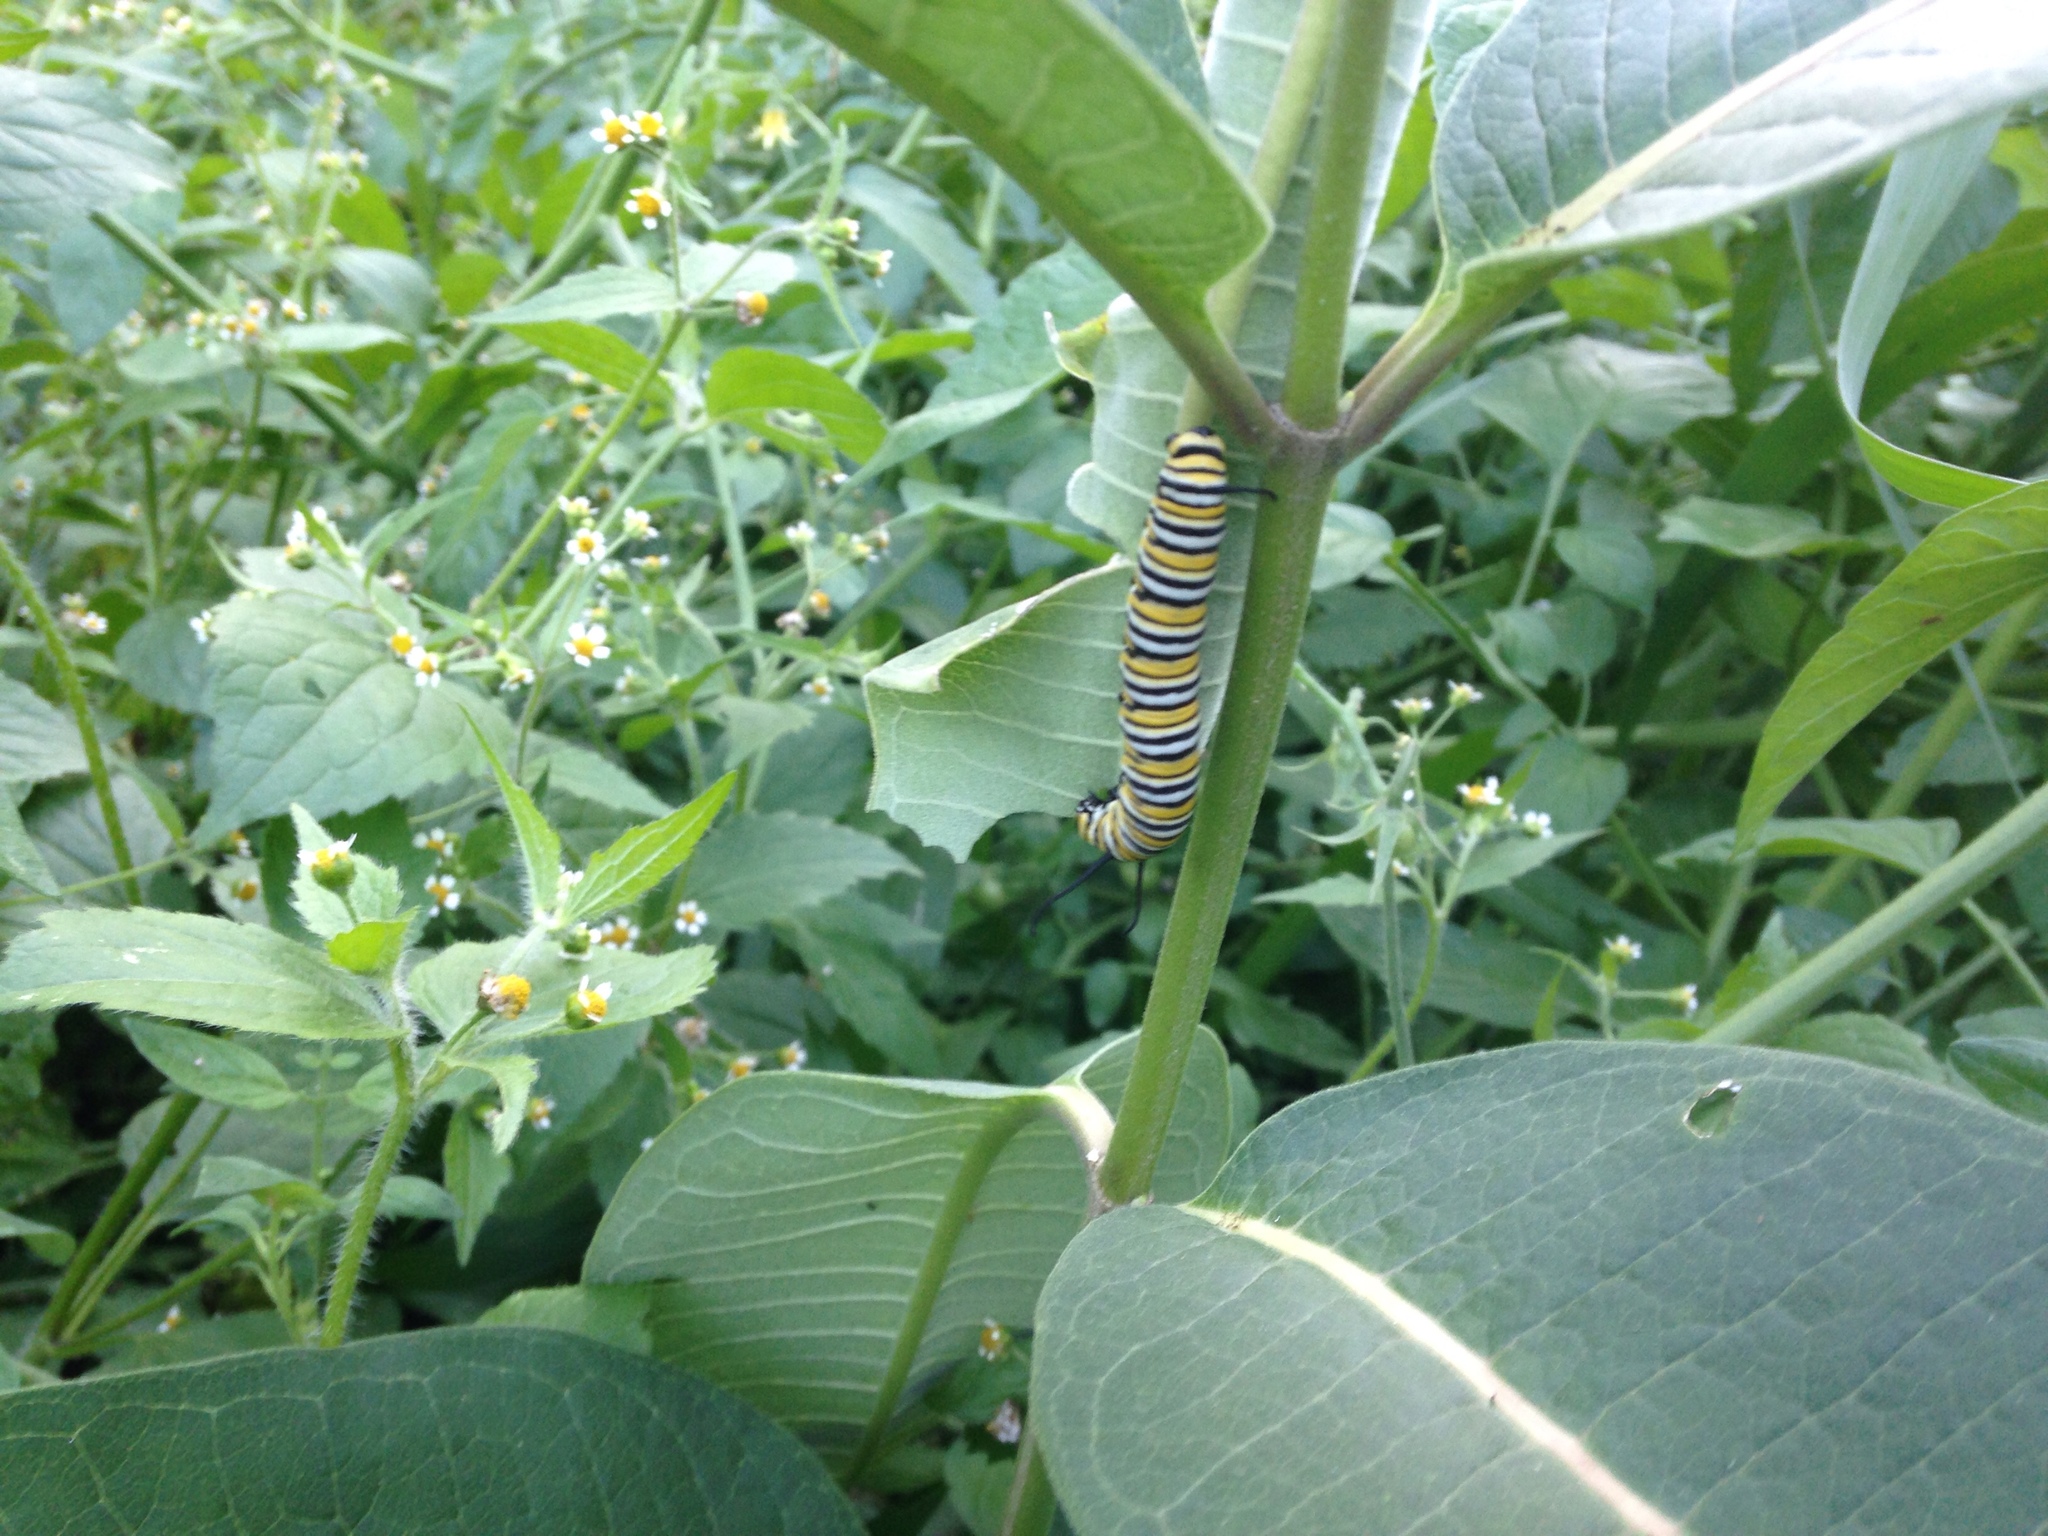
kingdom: Animalia
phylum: Arthropoda
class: Insecta
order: Lepidoptera
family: Nymphalidae
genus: Danaus
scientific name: Danaus plexippus
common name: Monarch
